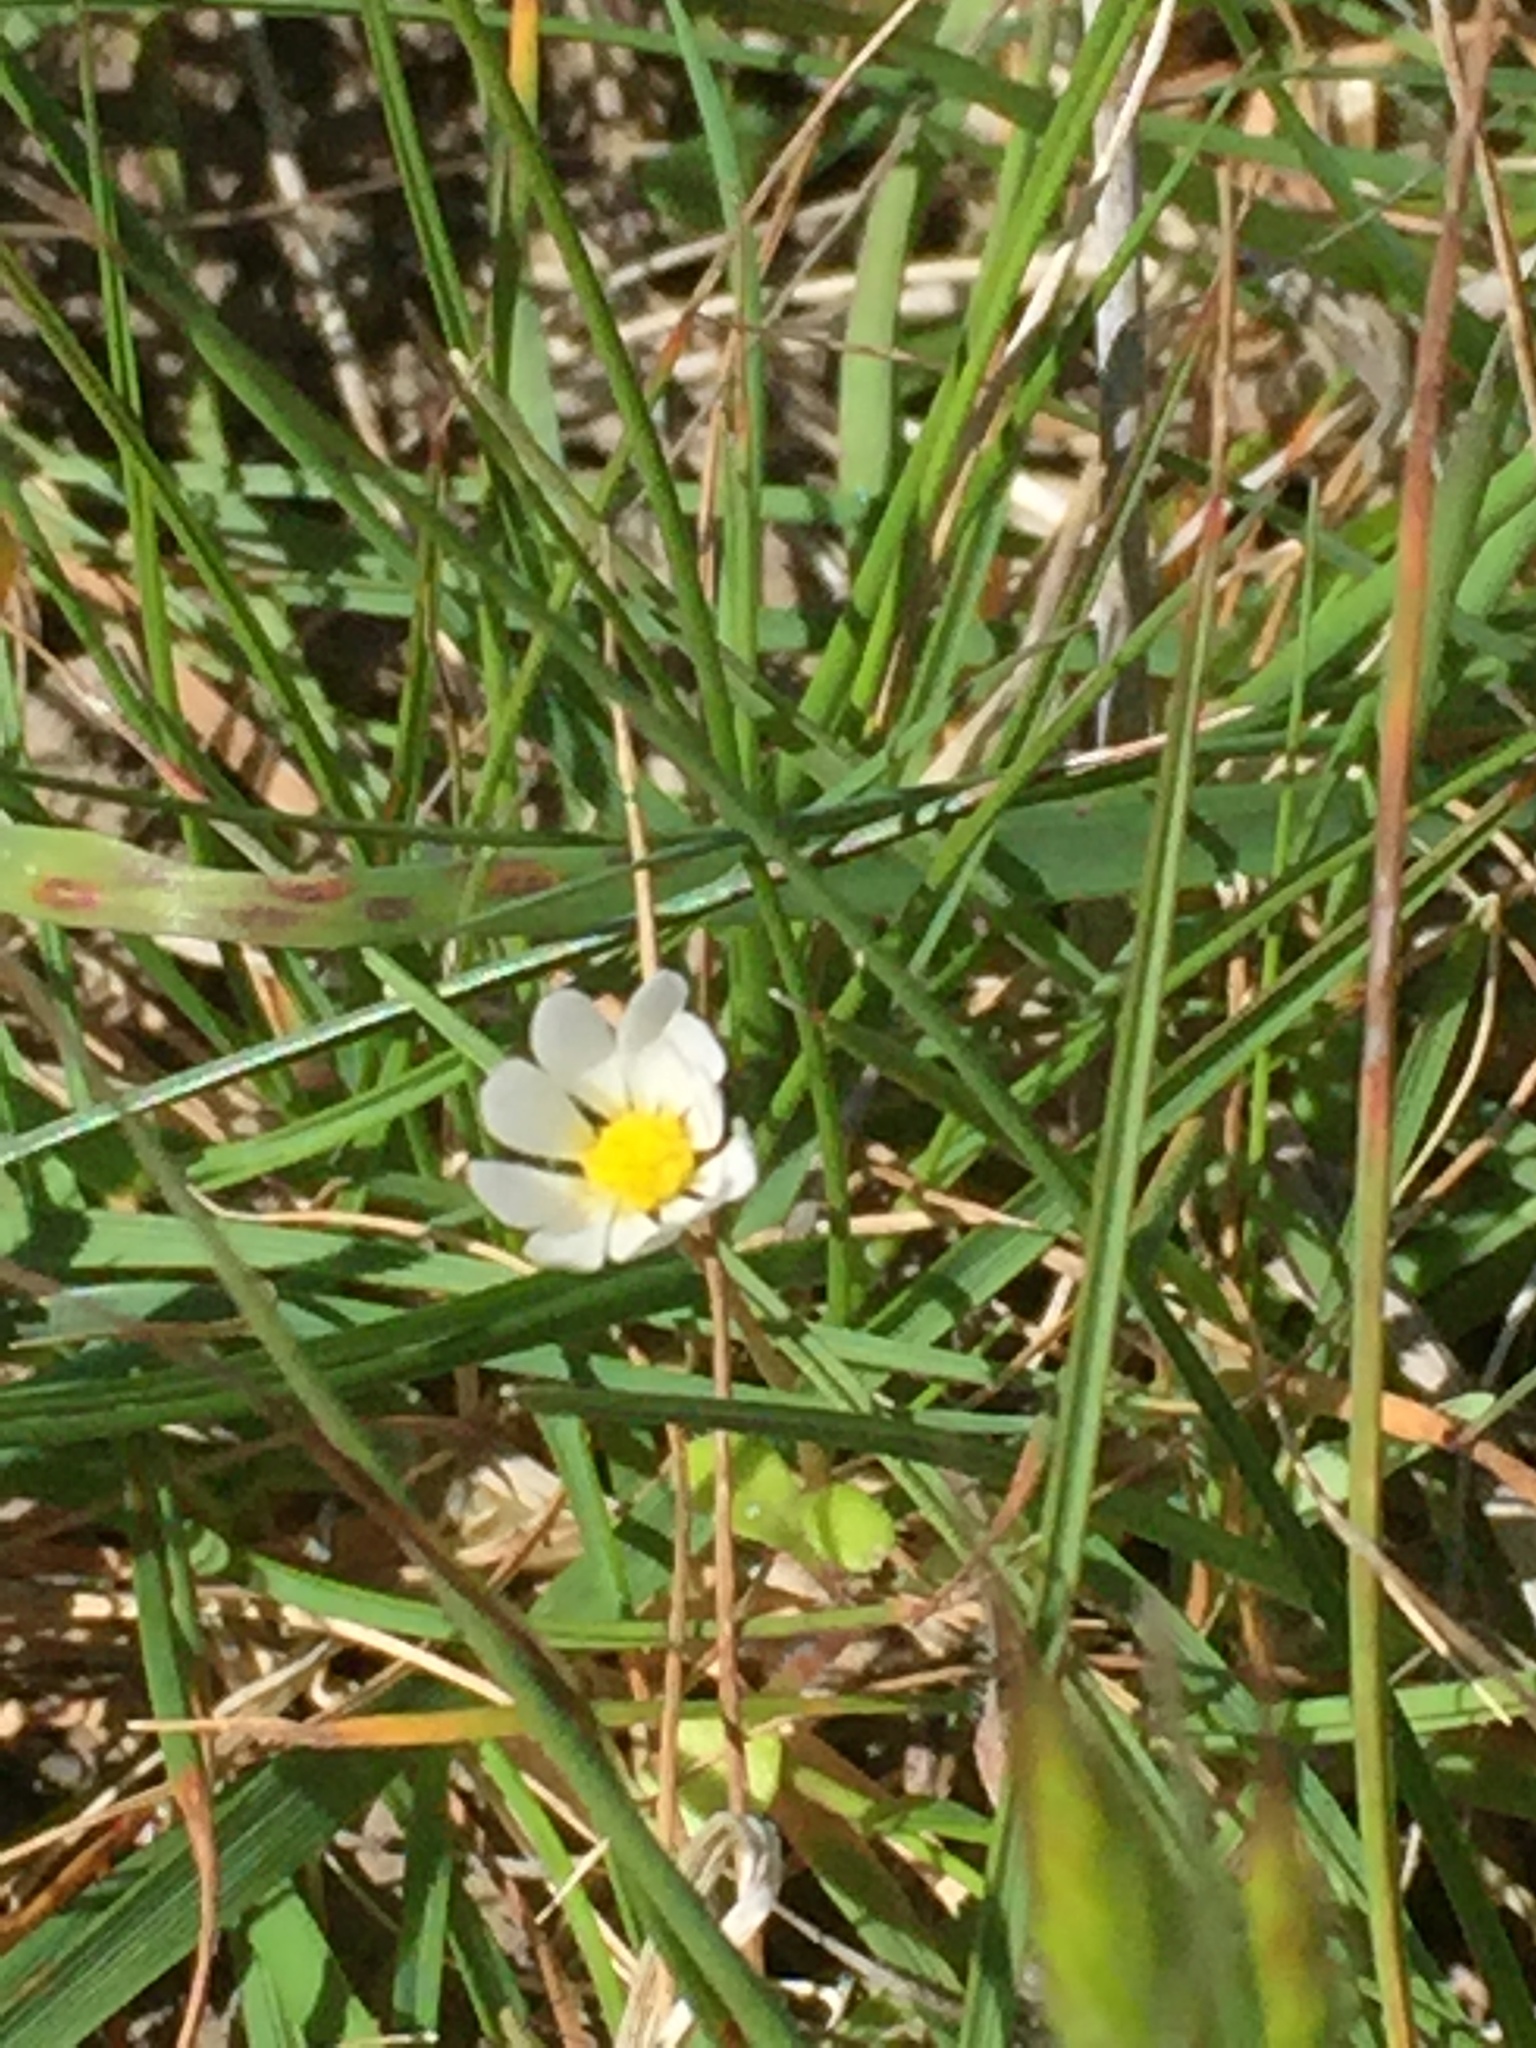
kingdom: Plantae
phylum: Tracheophyta
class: Magnoliopsida
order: Asterales
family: Asteraceae
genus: Bellis
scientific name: Bellis perennis
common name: Lawndaisy
